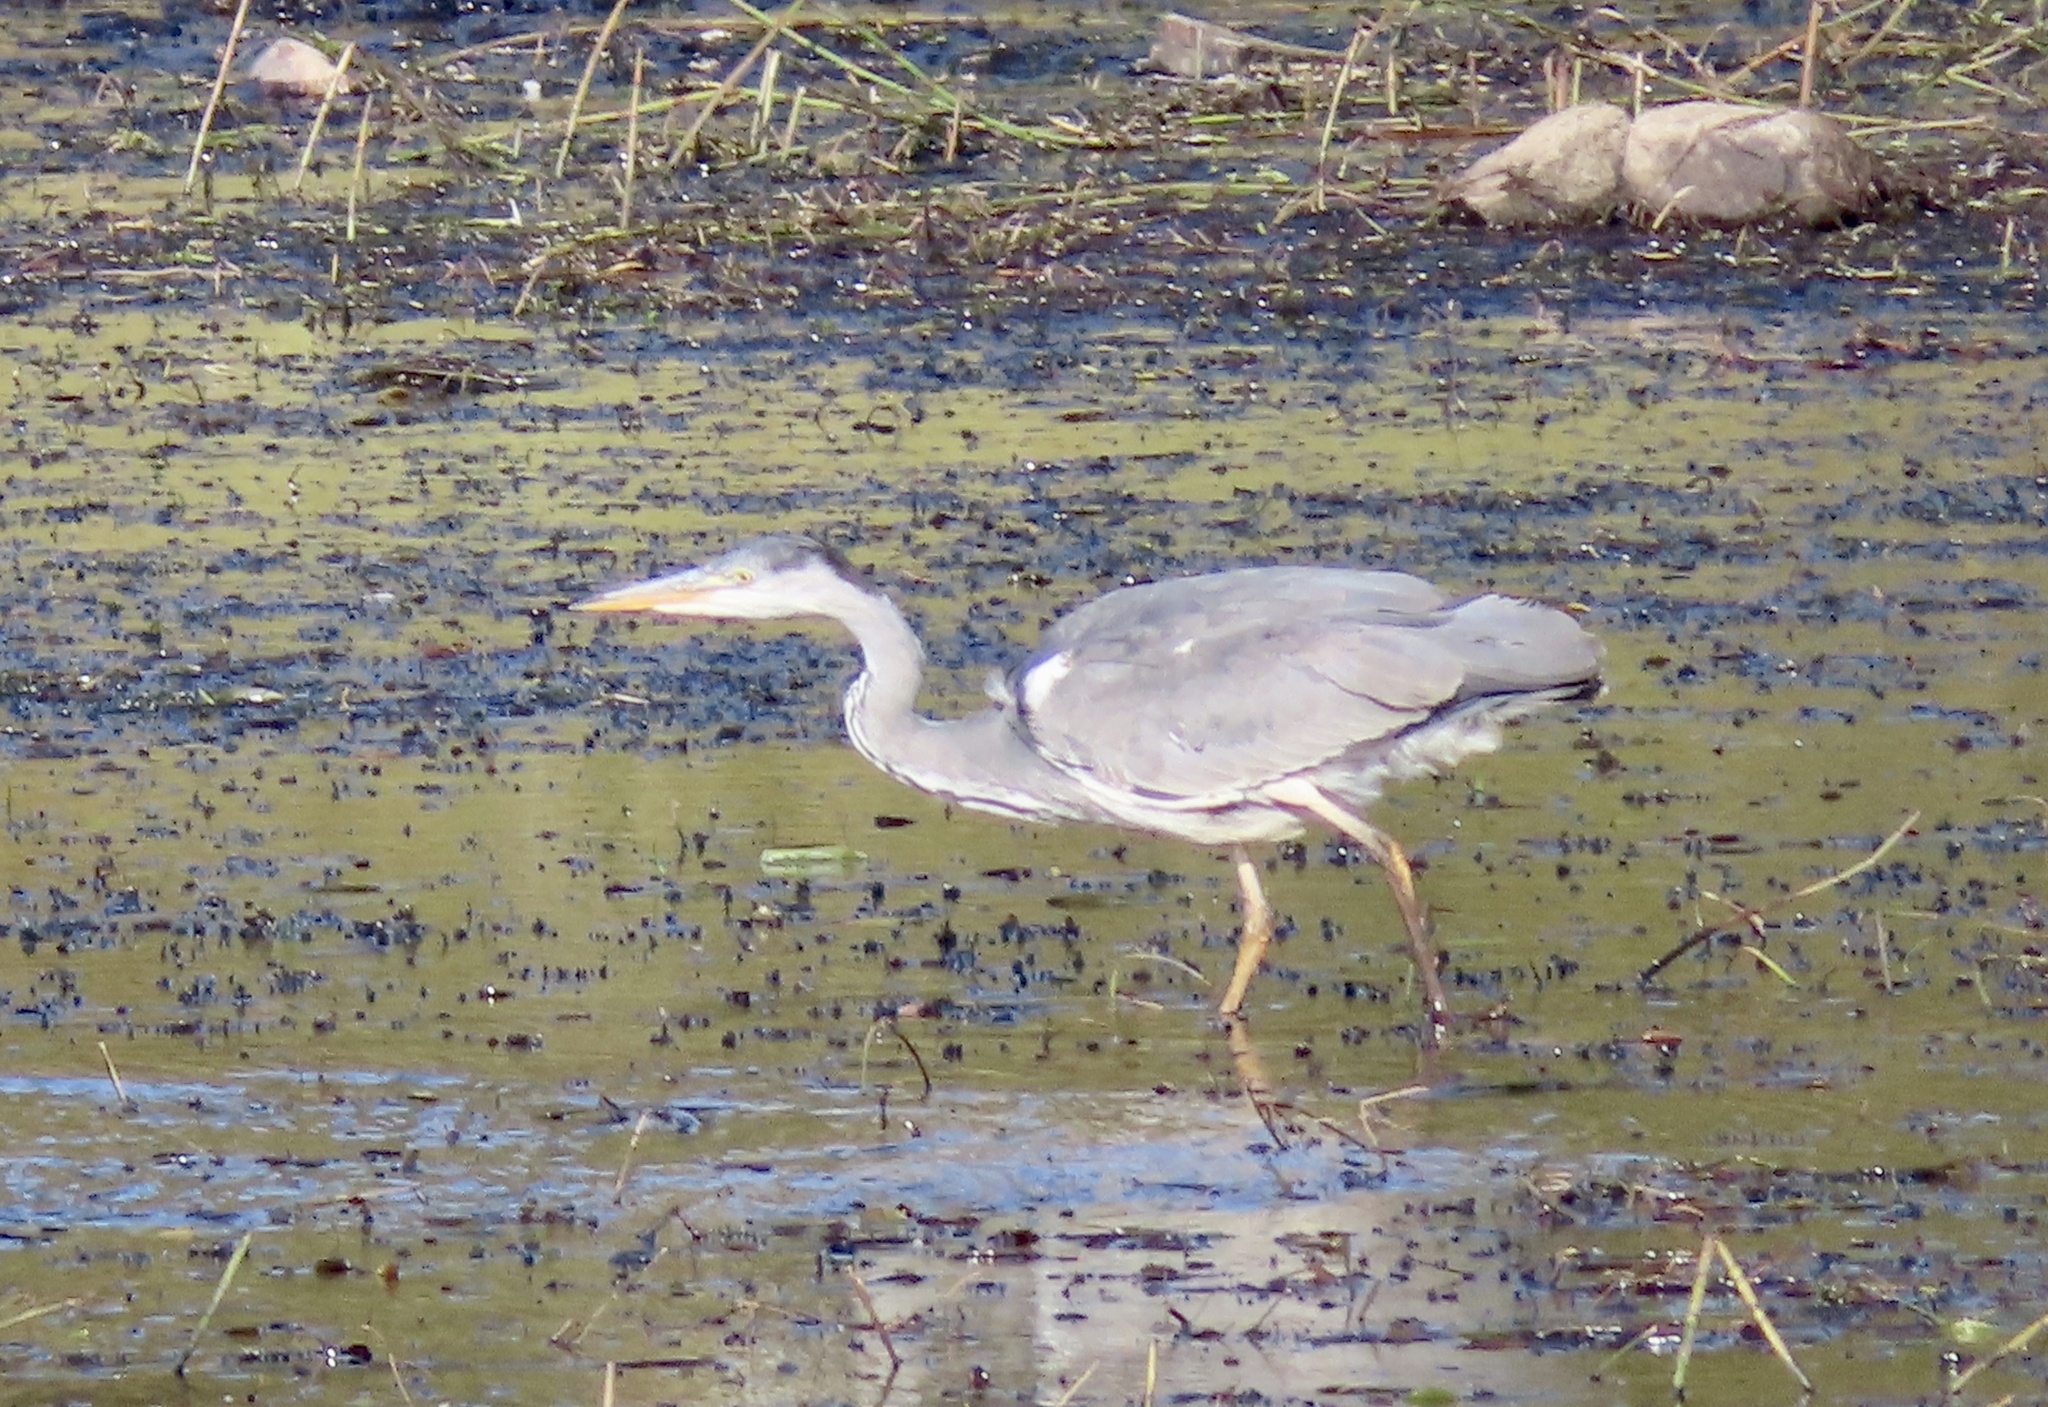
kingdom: Animalia
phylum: Chordata
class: Aves
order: Pelecaniformes
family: Ardeidae
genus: Ardea
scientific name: Ardea cinerea
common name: Grey heron
